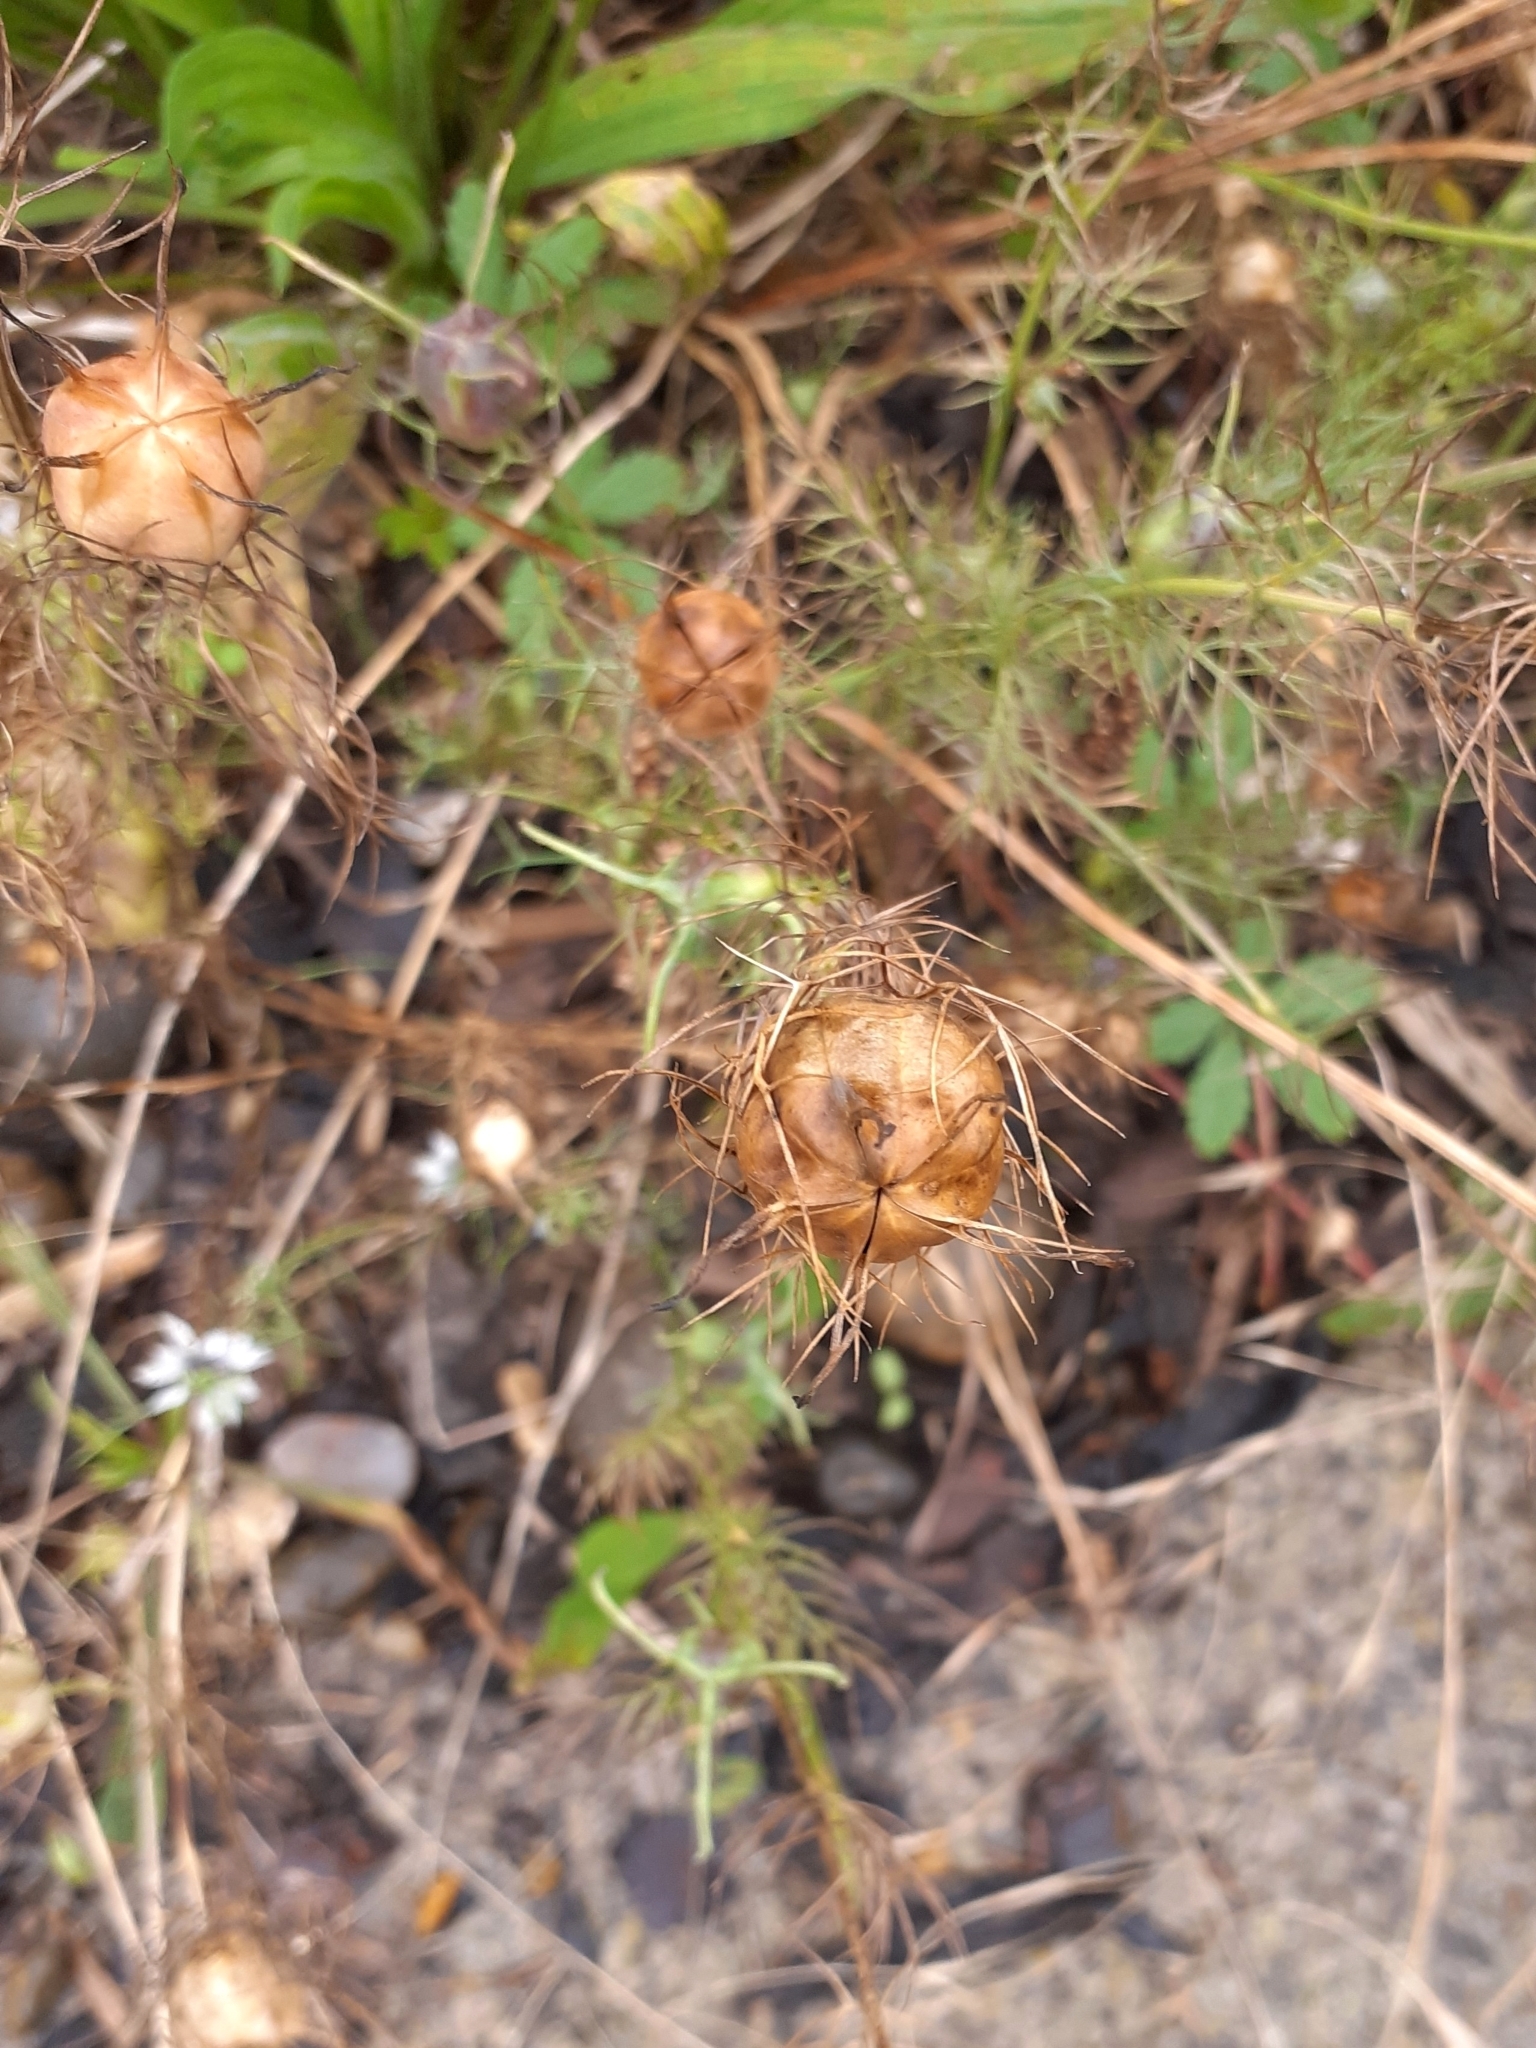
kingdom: Plantae
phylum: Tracheophyta
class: Magnoliopsida
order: Ranunculales
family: Ranunculaceae
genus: Nigella
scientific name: Nigella damascena
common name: Love-in-a-mist
